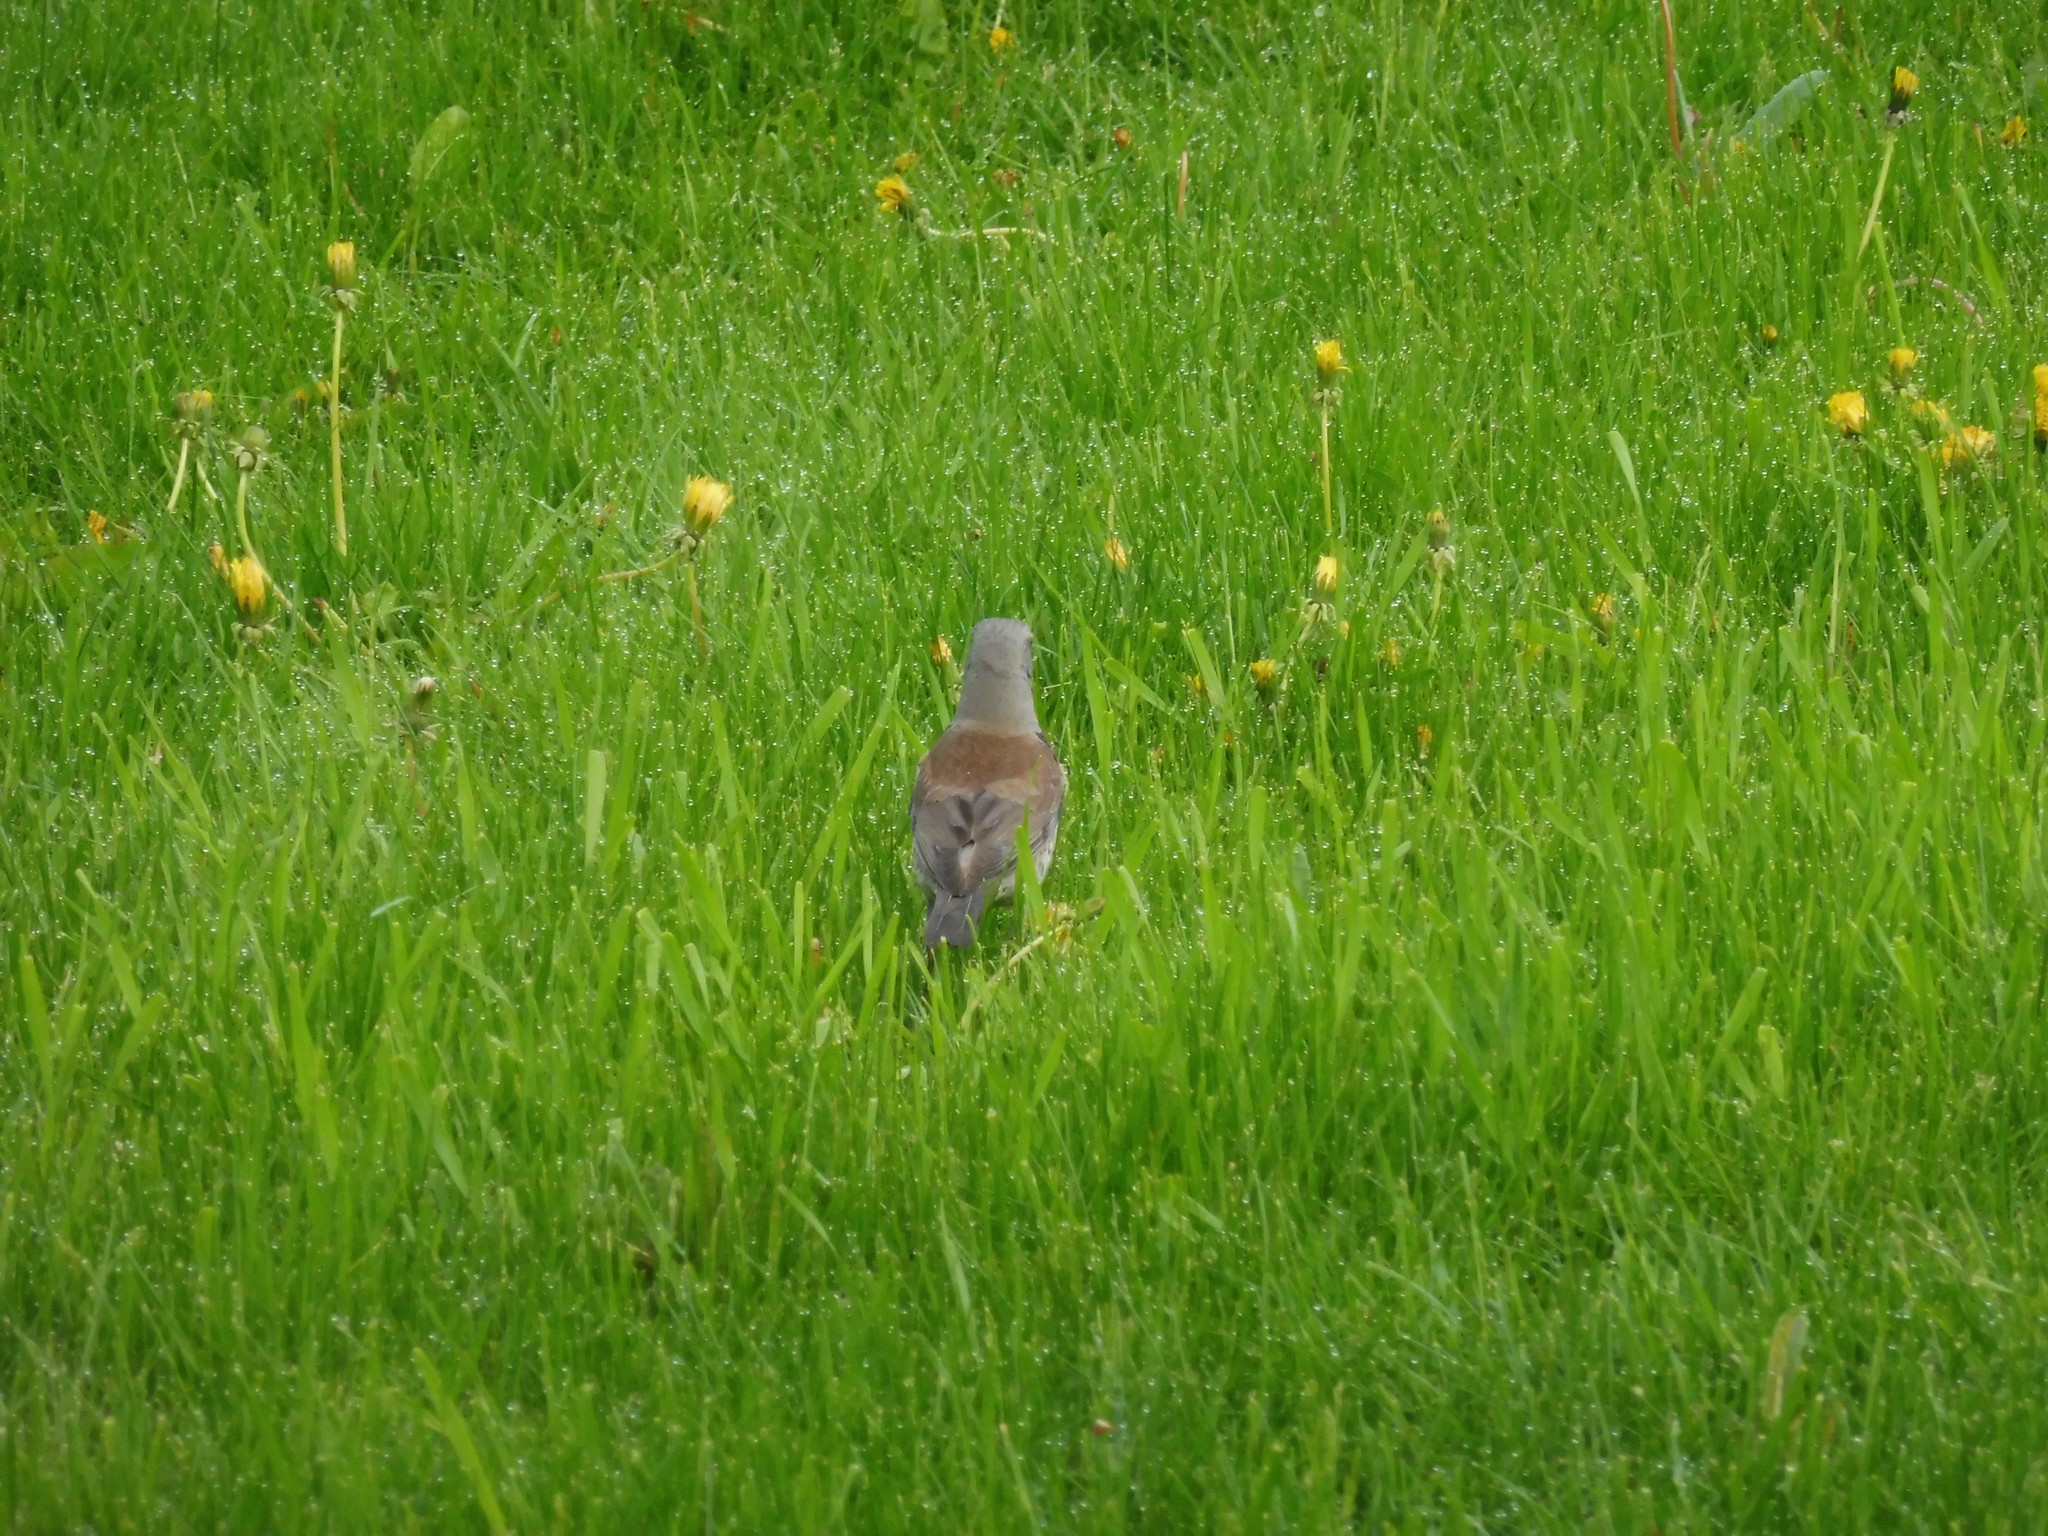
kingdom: Animalia
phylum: Chordata
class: Aves
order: Passeriformes
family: Turdidae
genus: Turdus
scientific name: Turdus pilaris
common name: Fieldfare
